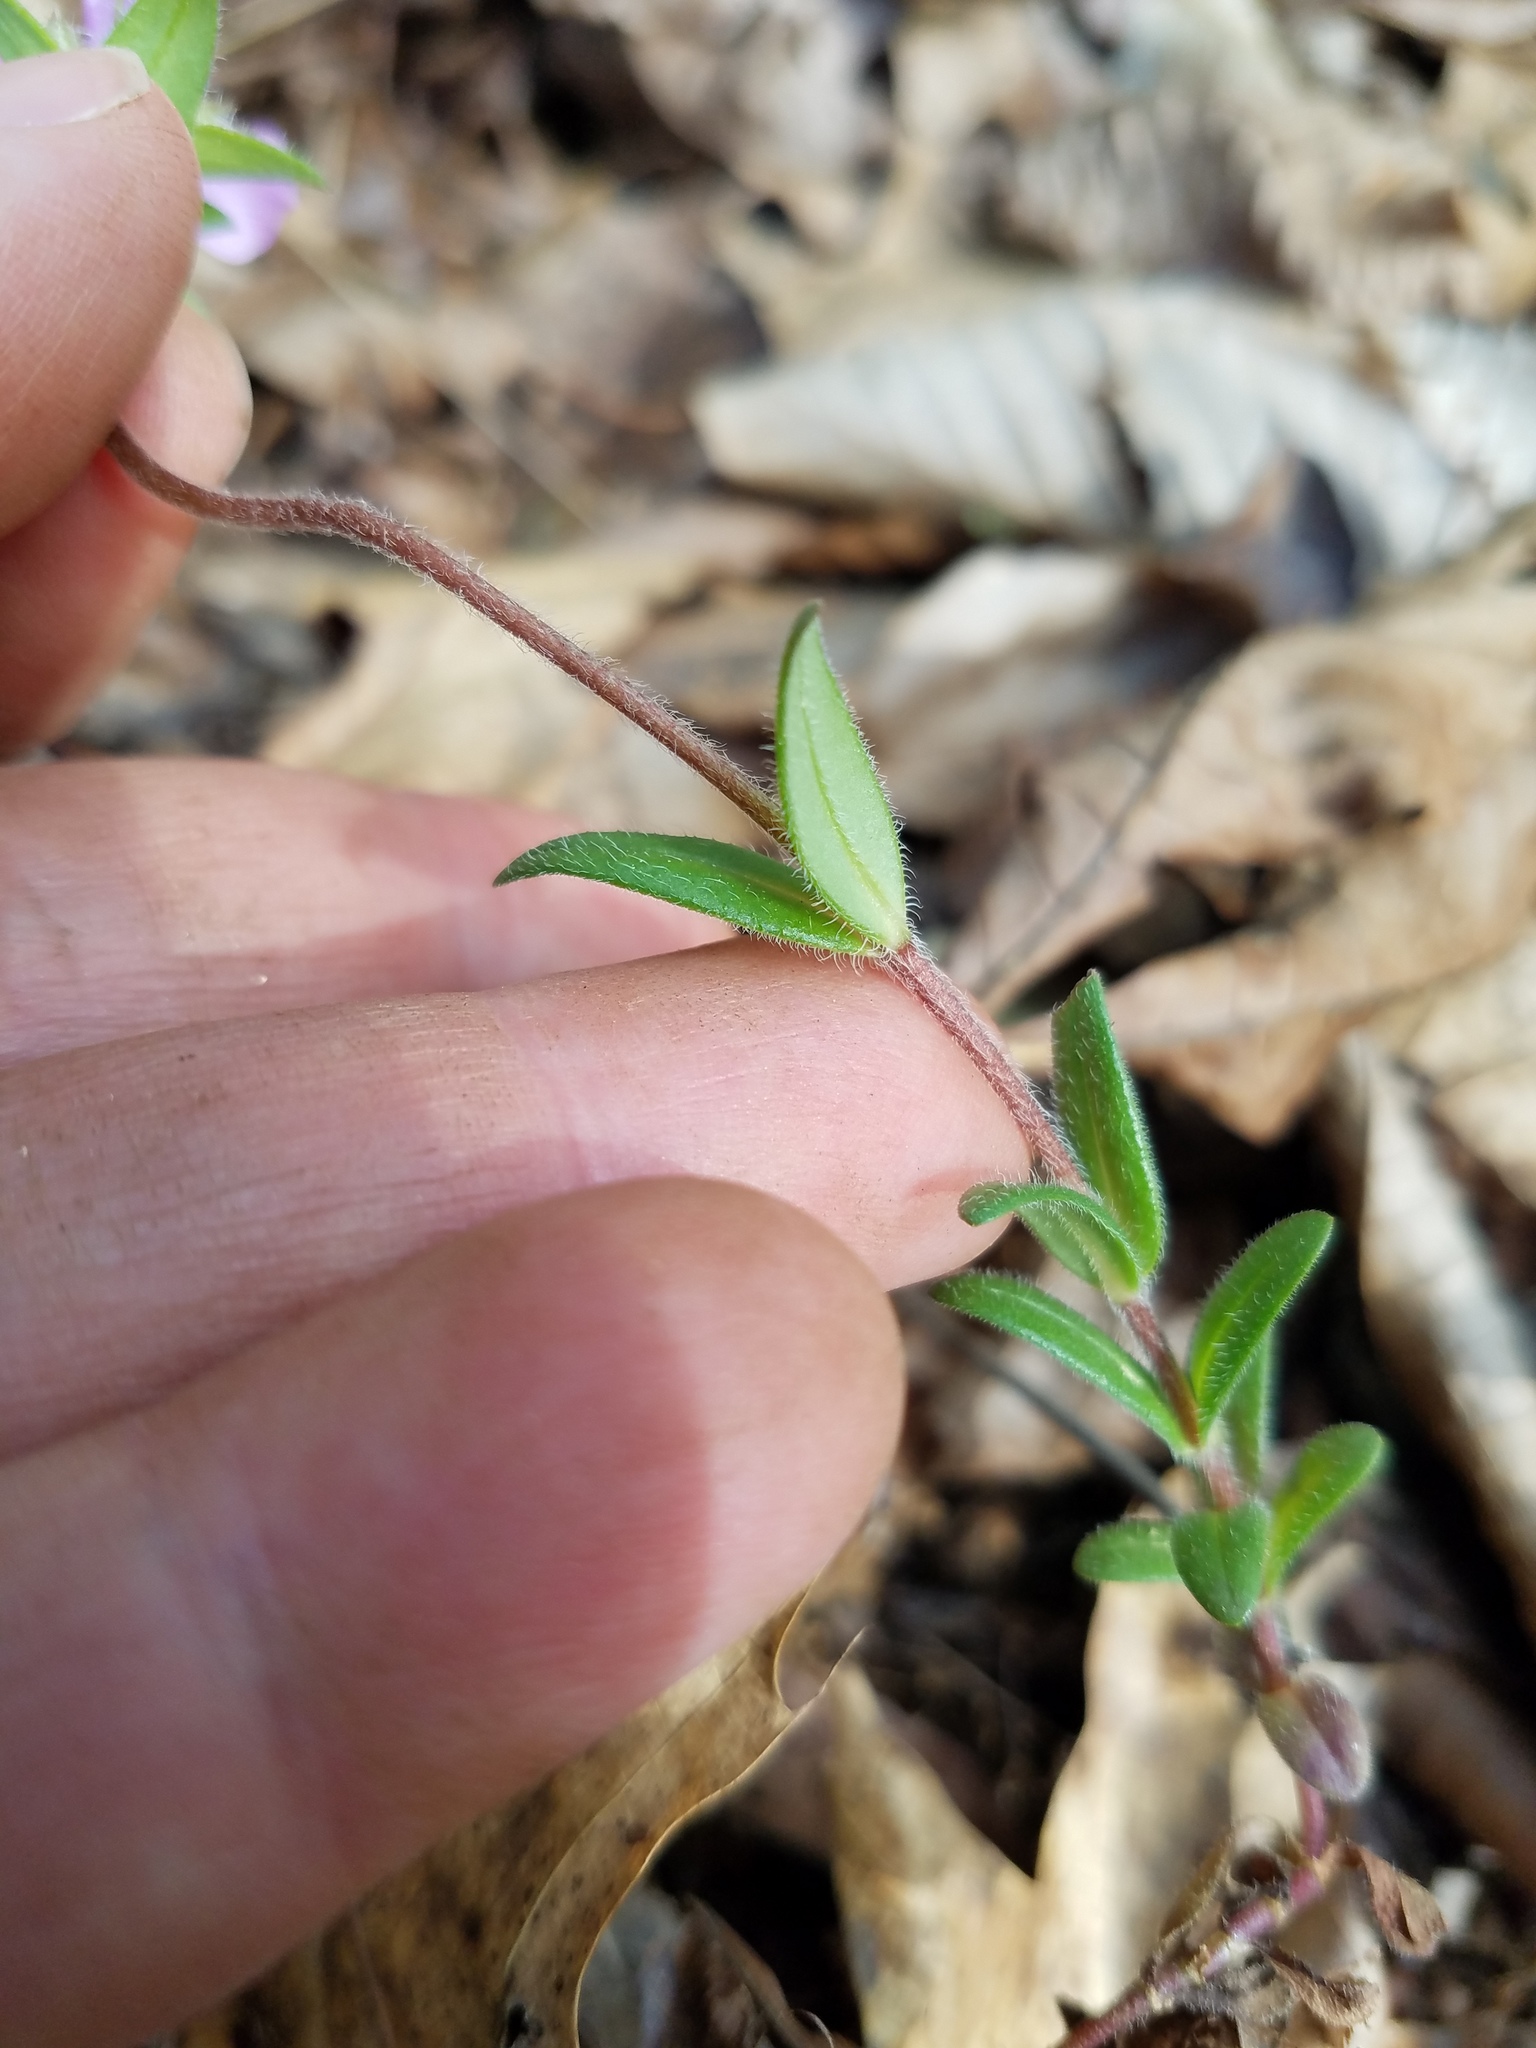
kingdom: Plantae
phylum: Tracheophyta
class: Magnoliopsida
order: Ericales
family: Polemoniaceae
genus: Phlox
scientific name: Phlox amoena
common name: Hairy phlox
